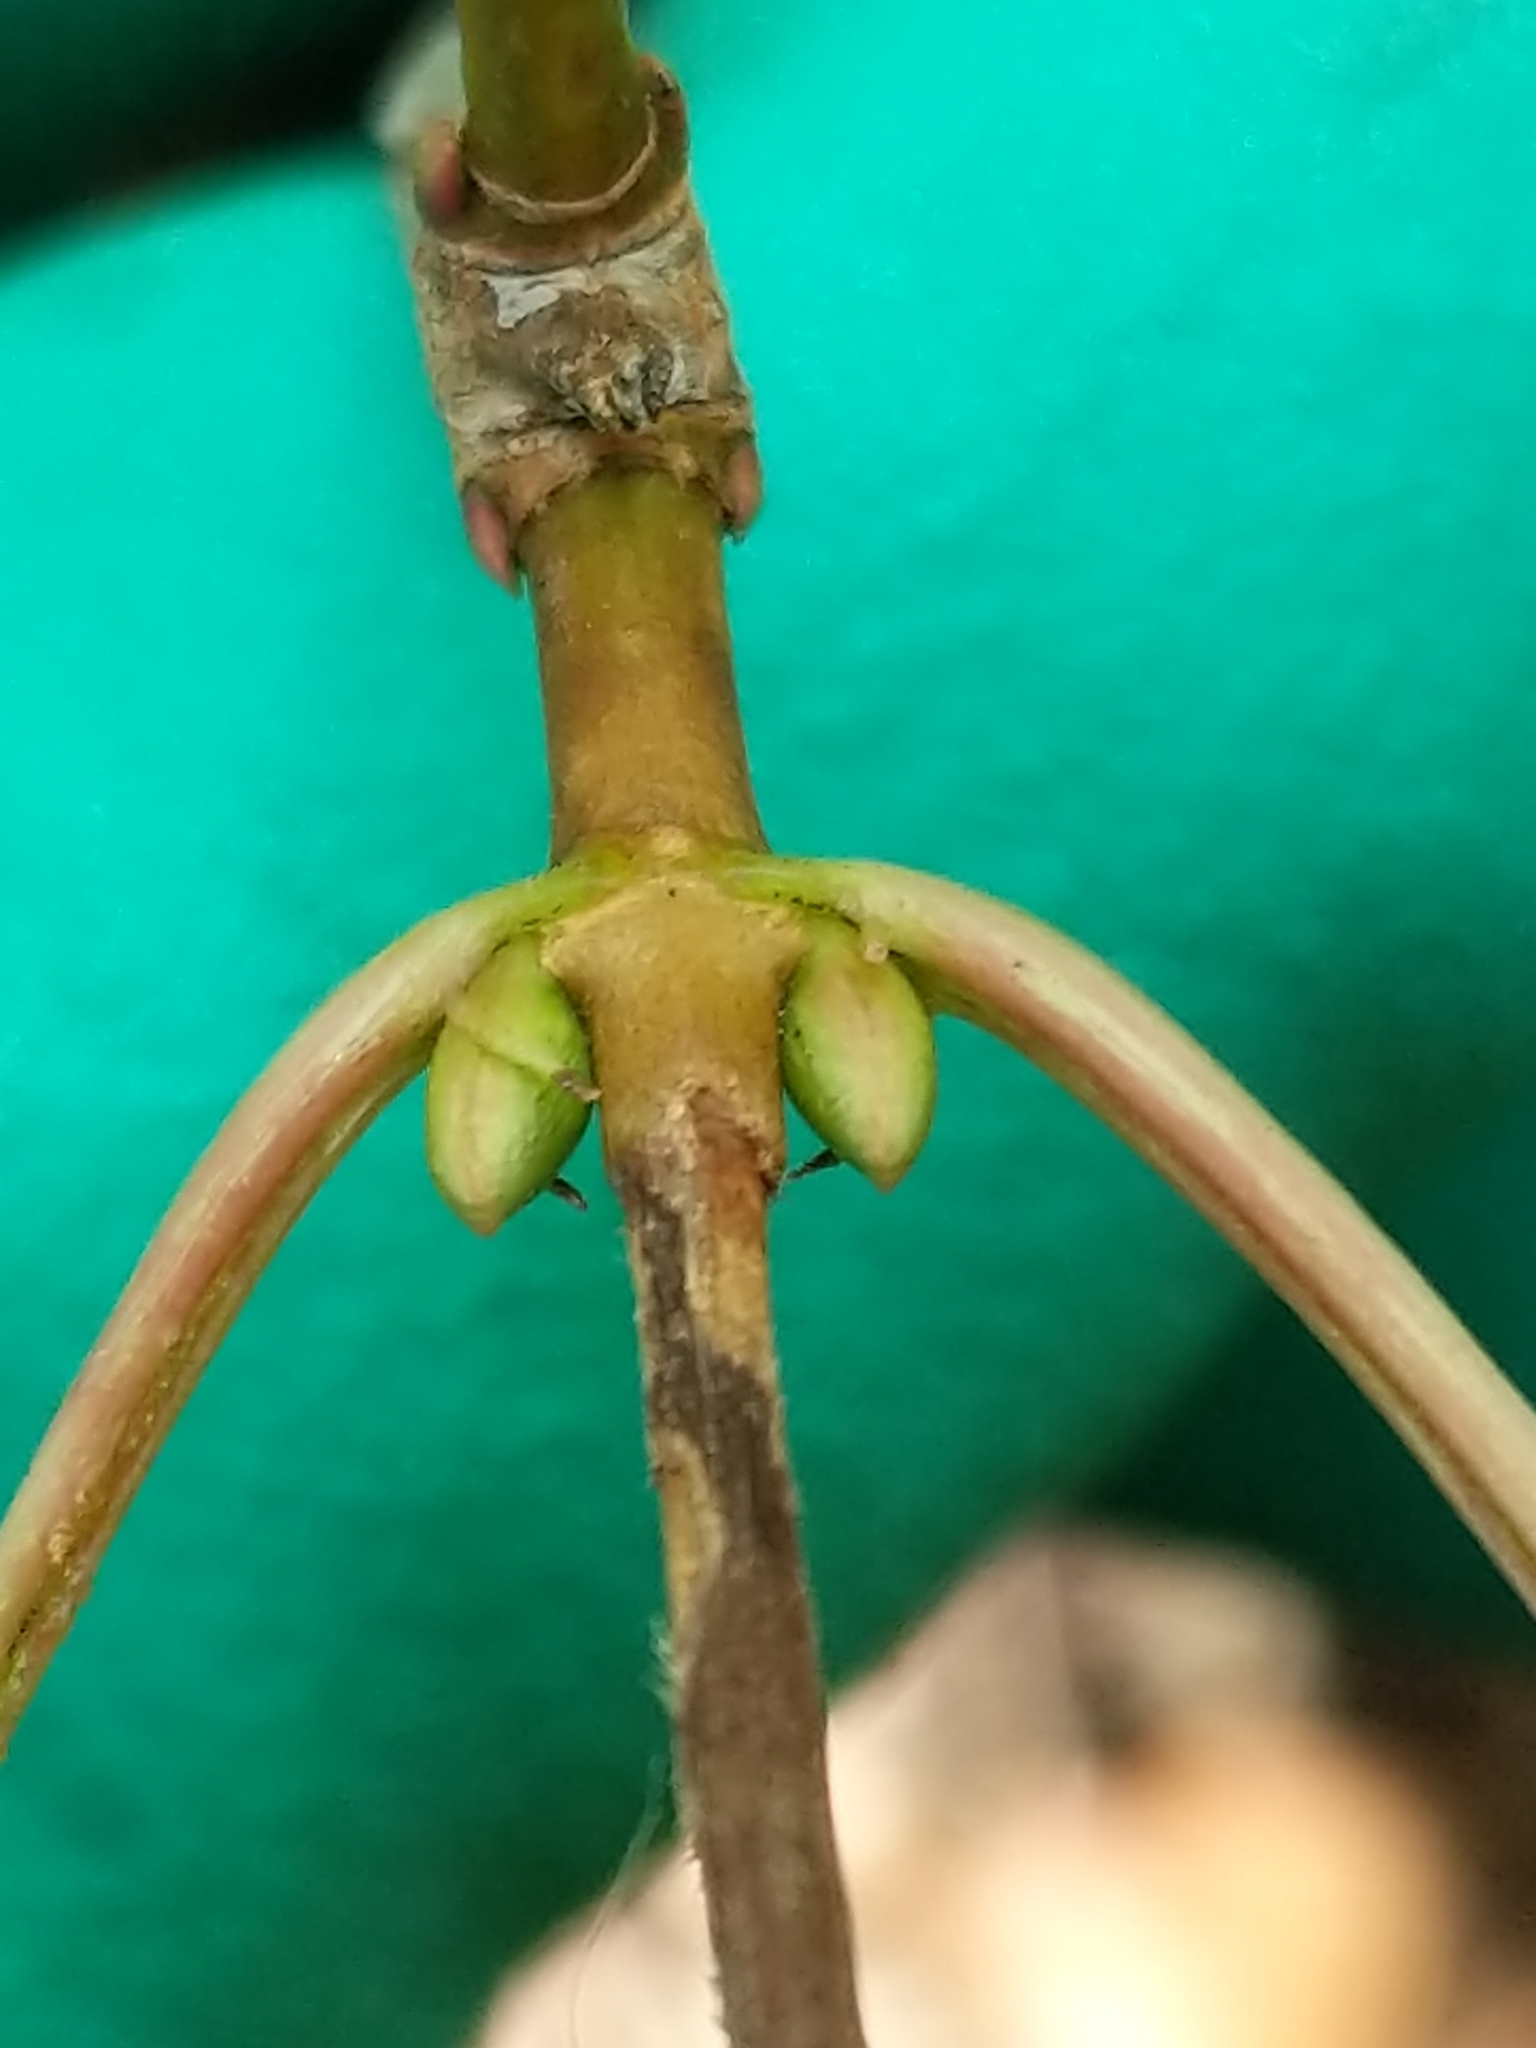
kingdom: Plantae
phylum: Tracheophyta
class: Magnoliopsida
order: Dipsacales
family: Viburnaceae
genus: Viburnum
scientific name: Viburnum opulus
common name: Guelder-rose
